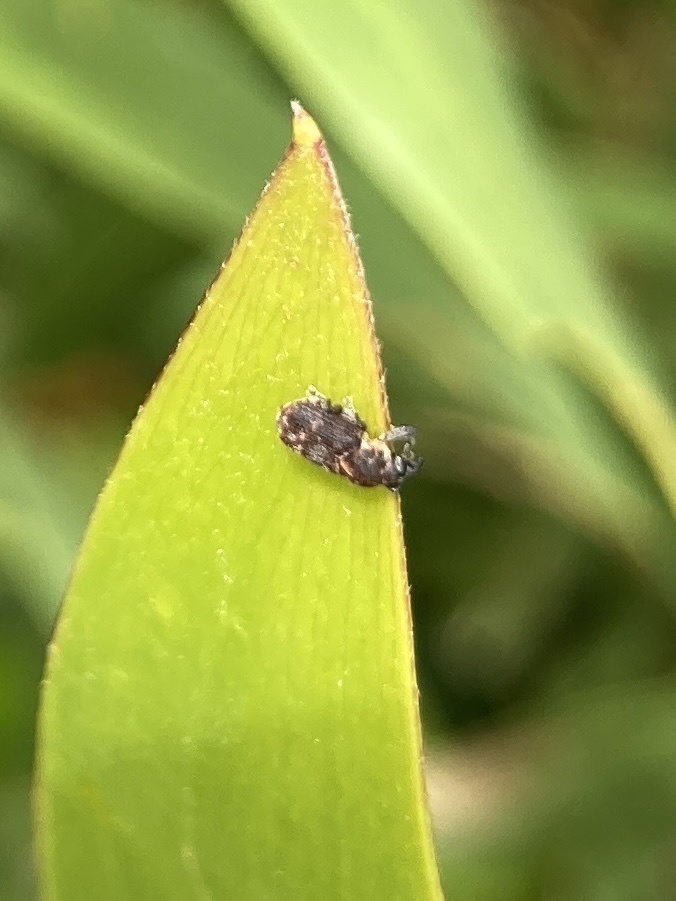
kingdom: Animalia
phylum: Arthropoda
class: Insecta
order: Coleoptera
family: Curculionidae
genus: Neolaemosaccus
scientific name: Neolaemosaccus narinus
